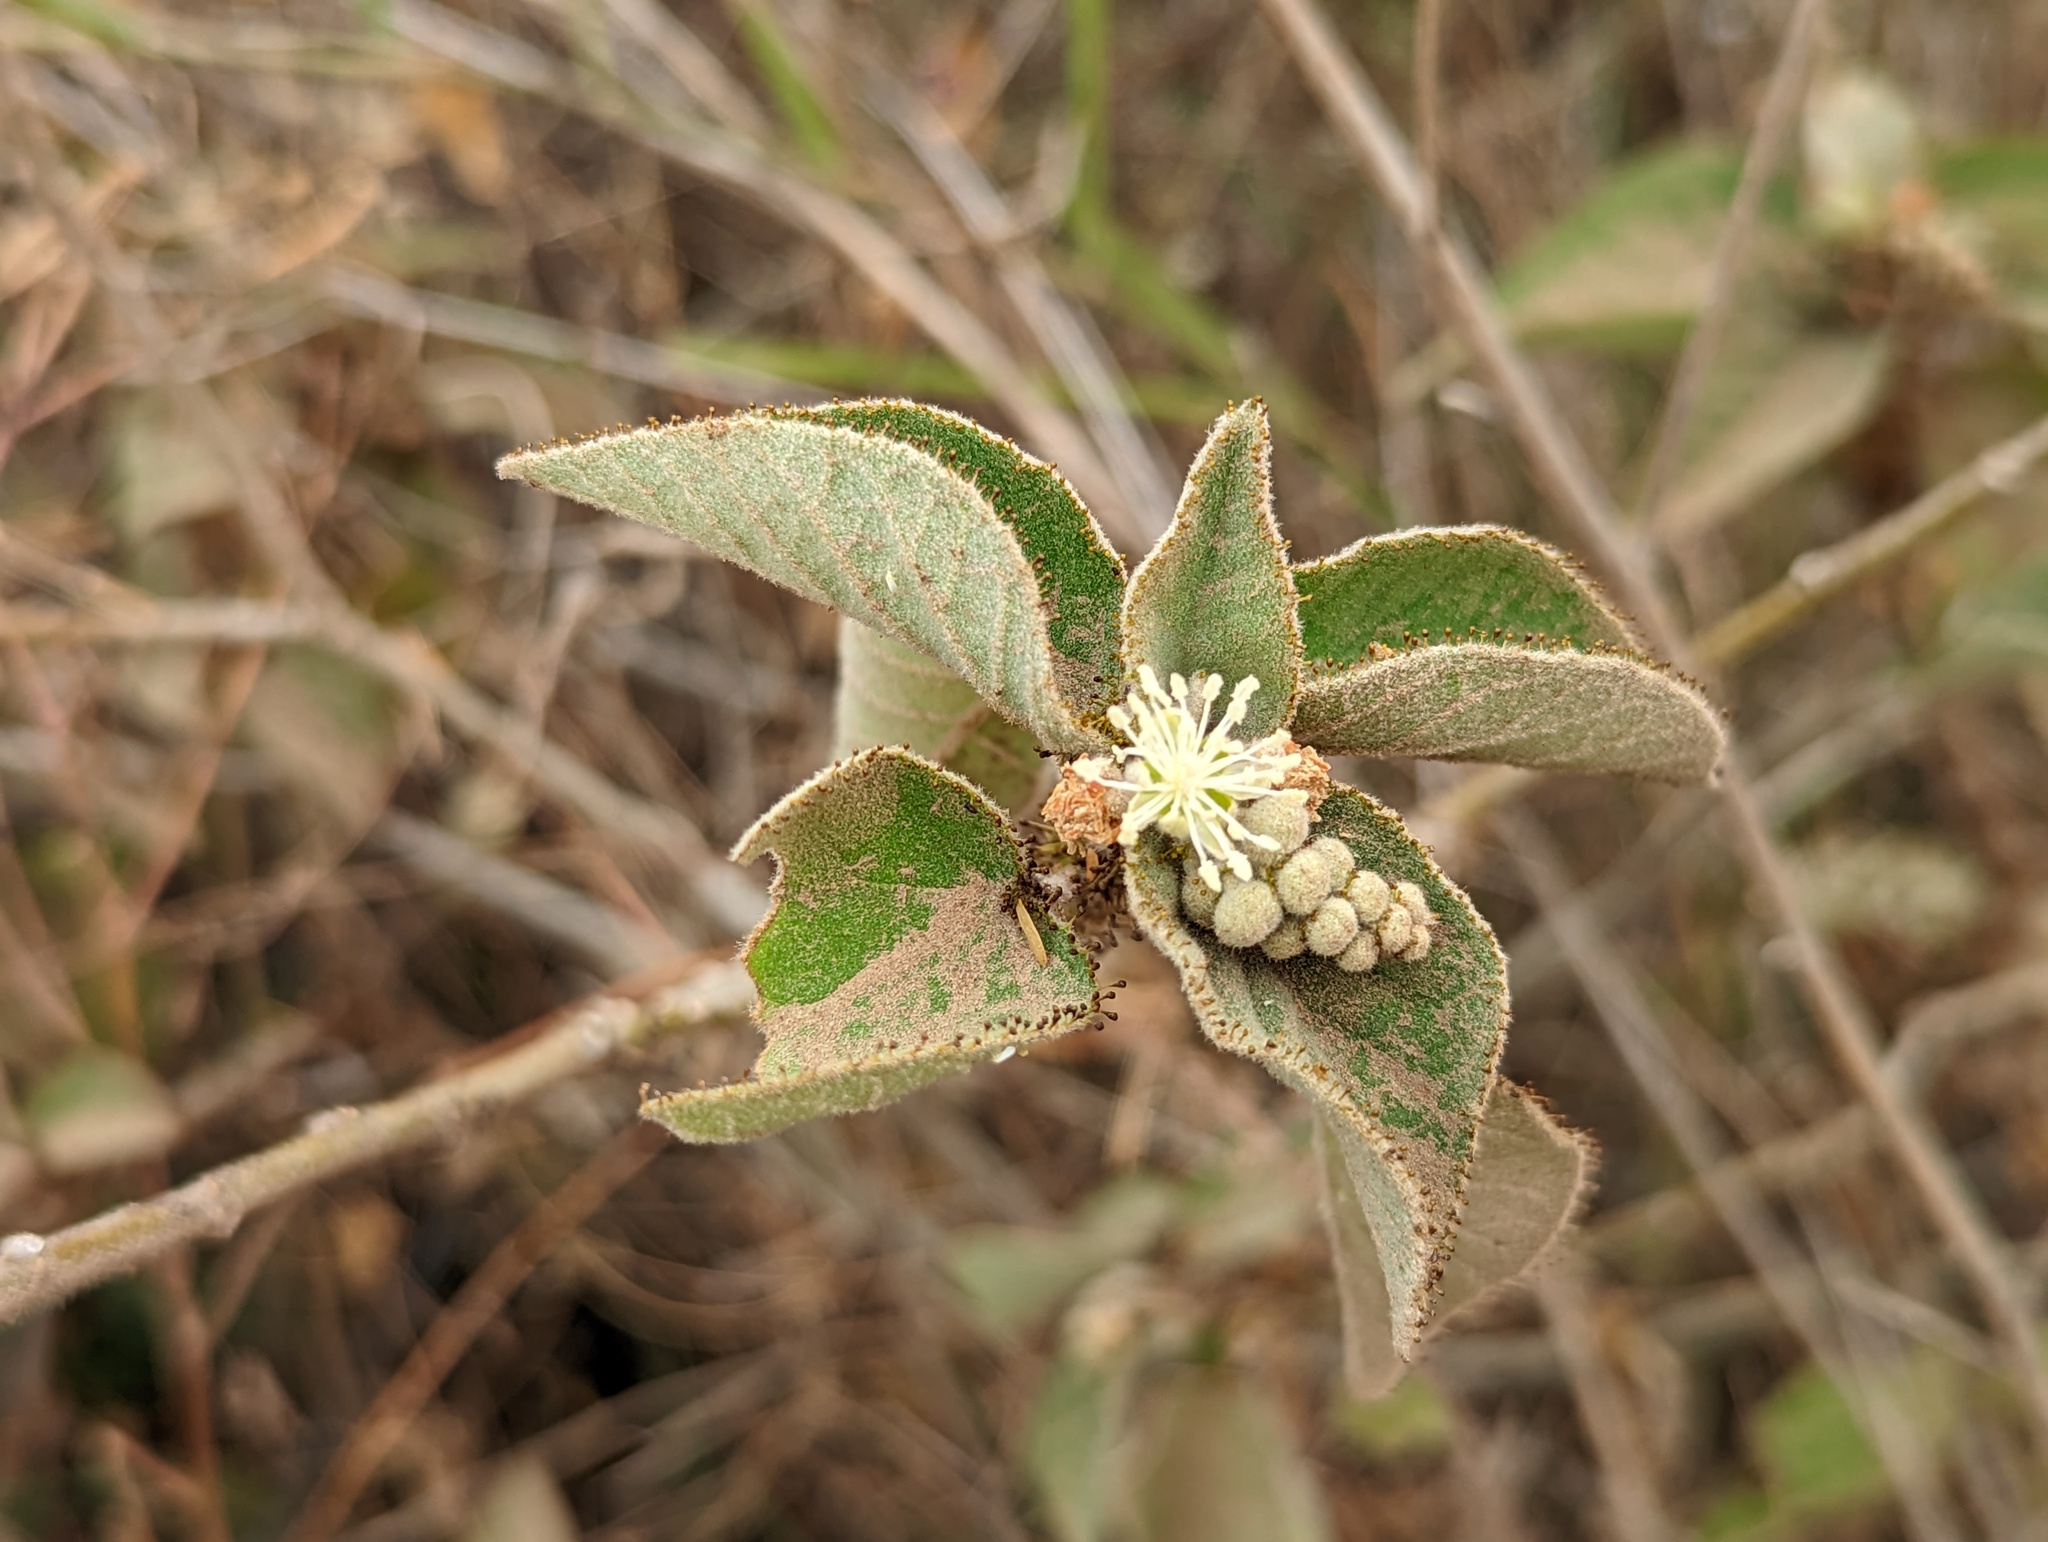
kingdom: Plantae
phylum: Tracheophyta
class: Magnoliopsida
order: Malpighiales
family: Euphorbiaceae
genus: Croton
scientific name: Croton ciliatoglandulifer
